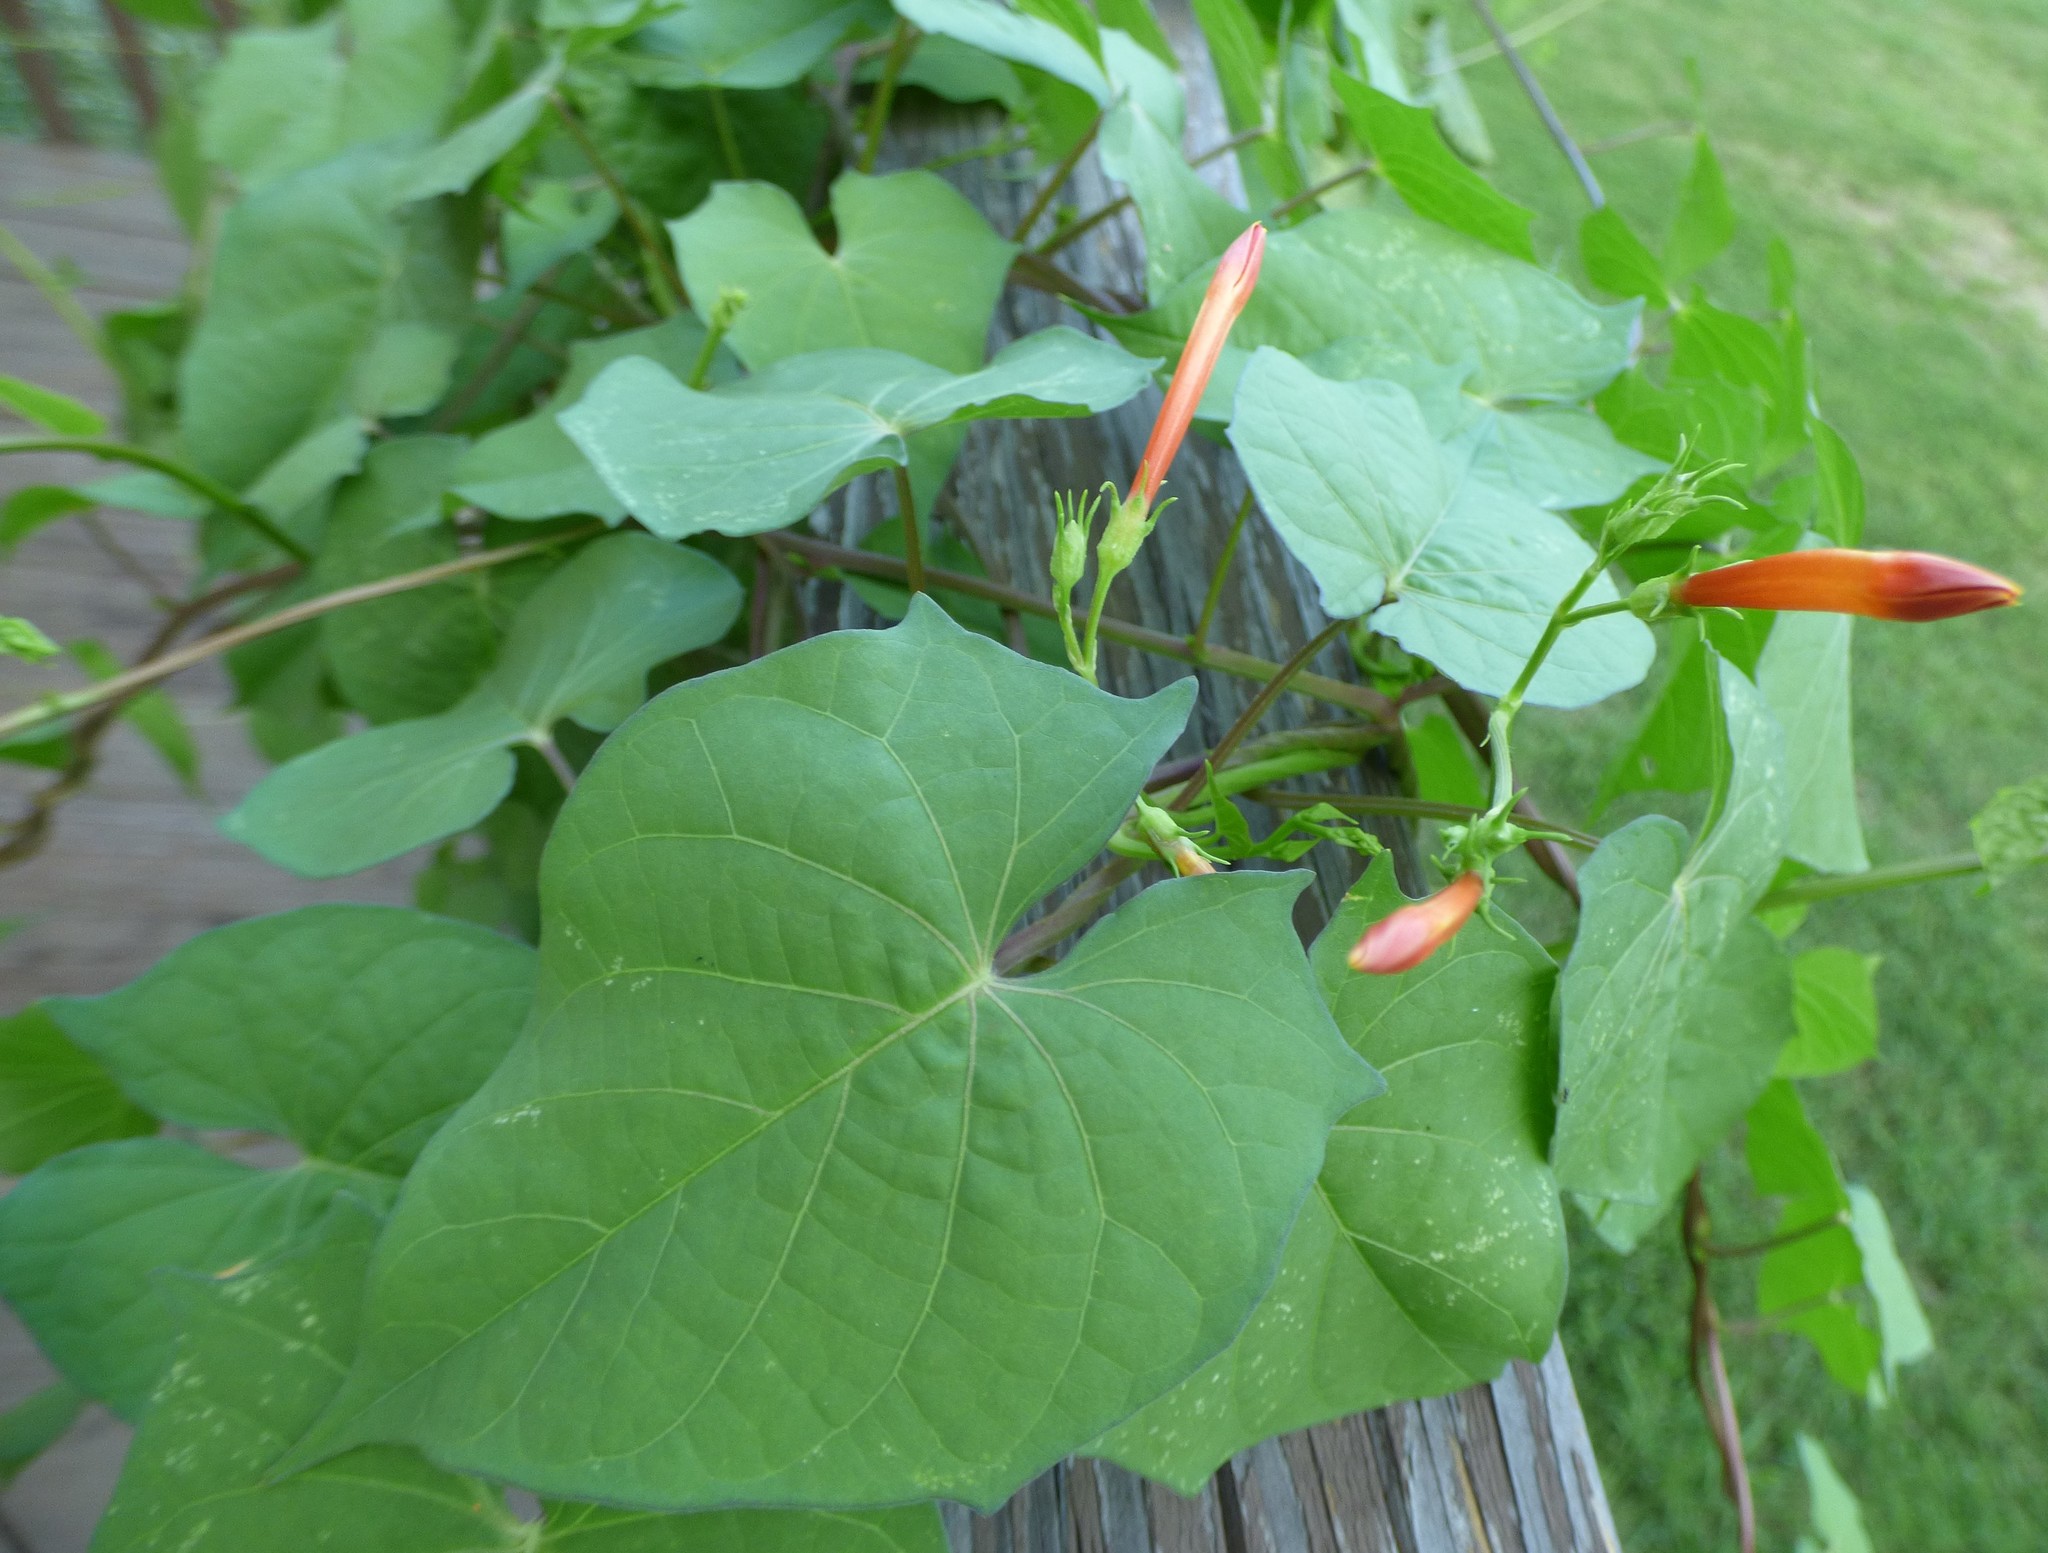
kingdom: Plantae
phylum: Tracheophyta
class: Magnoliopsida
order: Solanales
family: Convolvulaceae
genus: Ipomoea
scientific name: Ipomoea coccinea
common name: Red morning-glory
